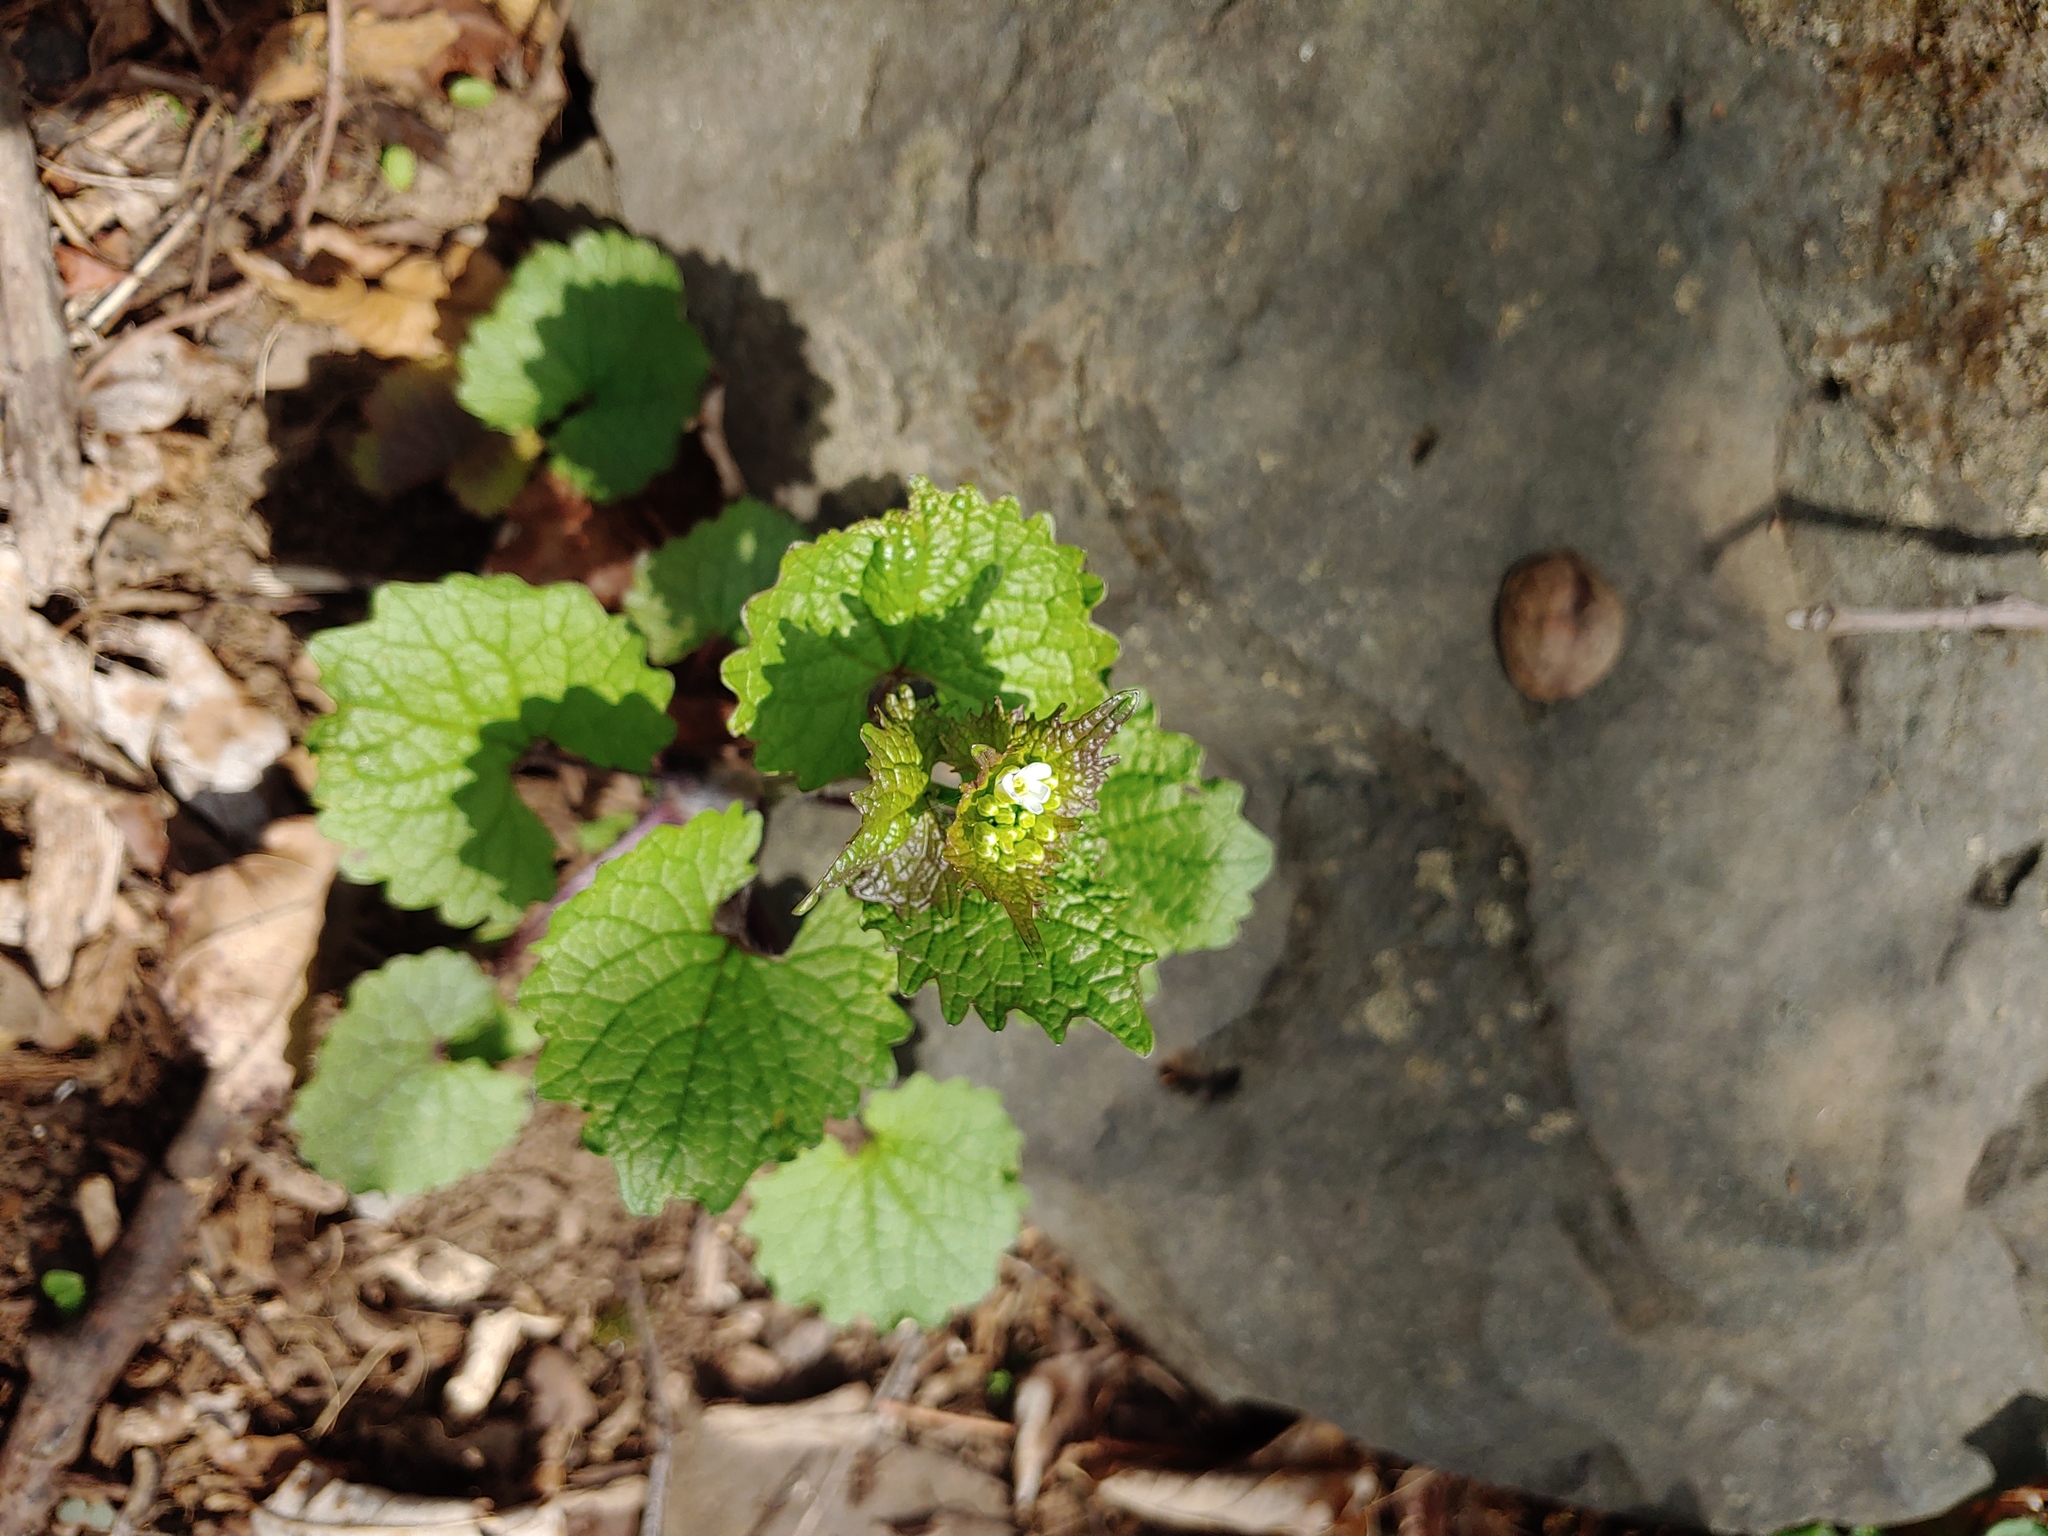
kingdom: Plantae
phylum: Tracheophyta
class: Magnoliopsida
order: Brassicales
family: Brassicaceae
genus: Alliaria
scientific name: Alliaria petiolata
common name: Garlic mustard
